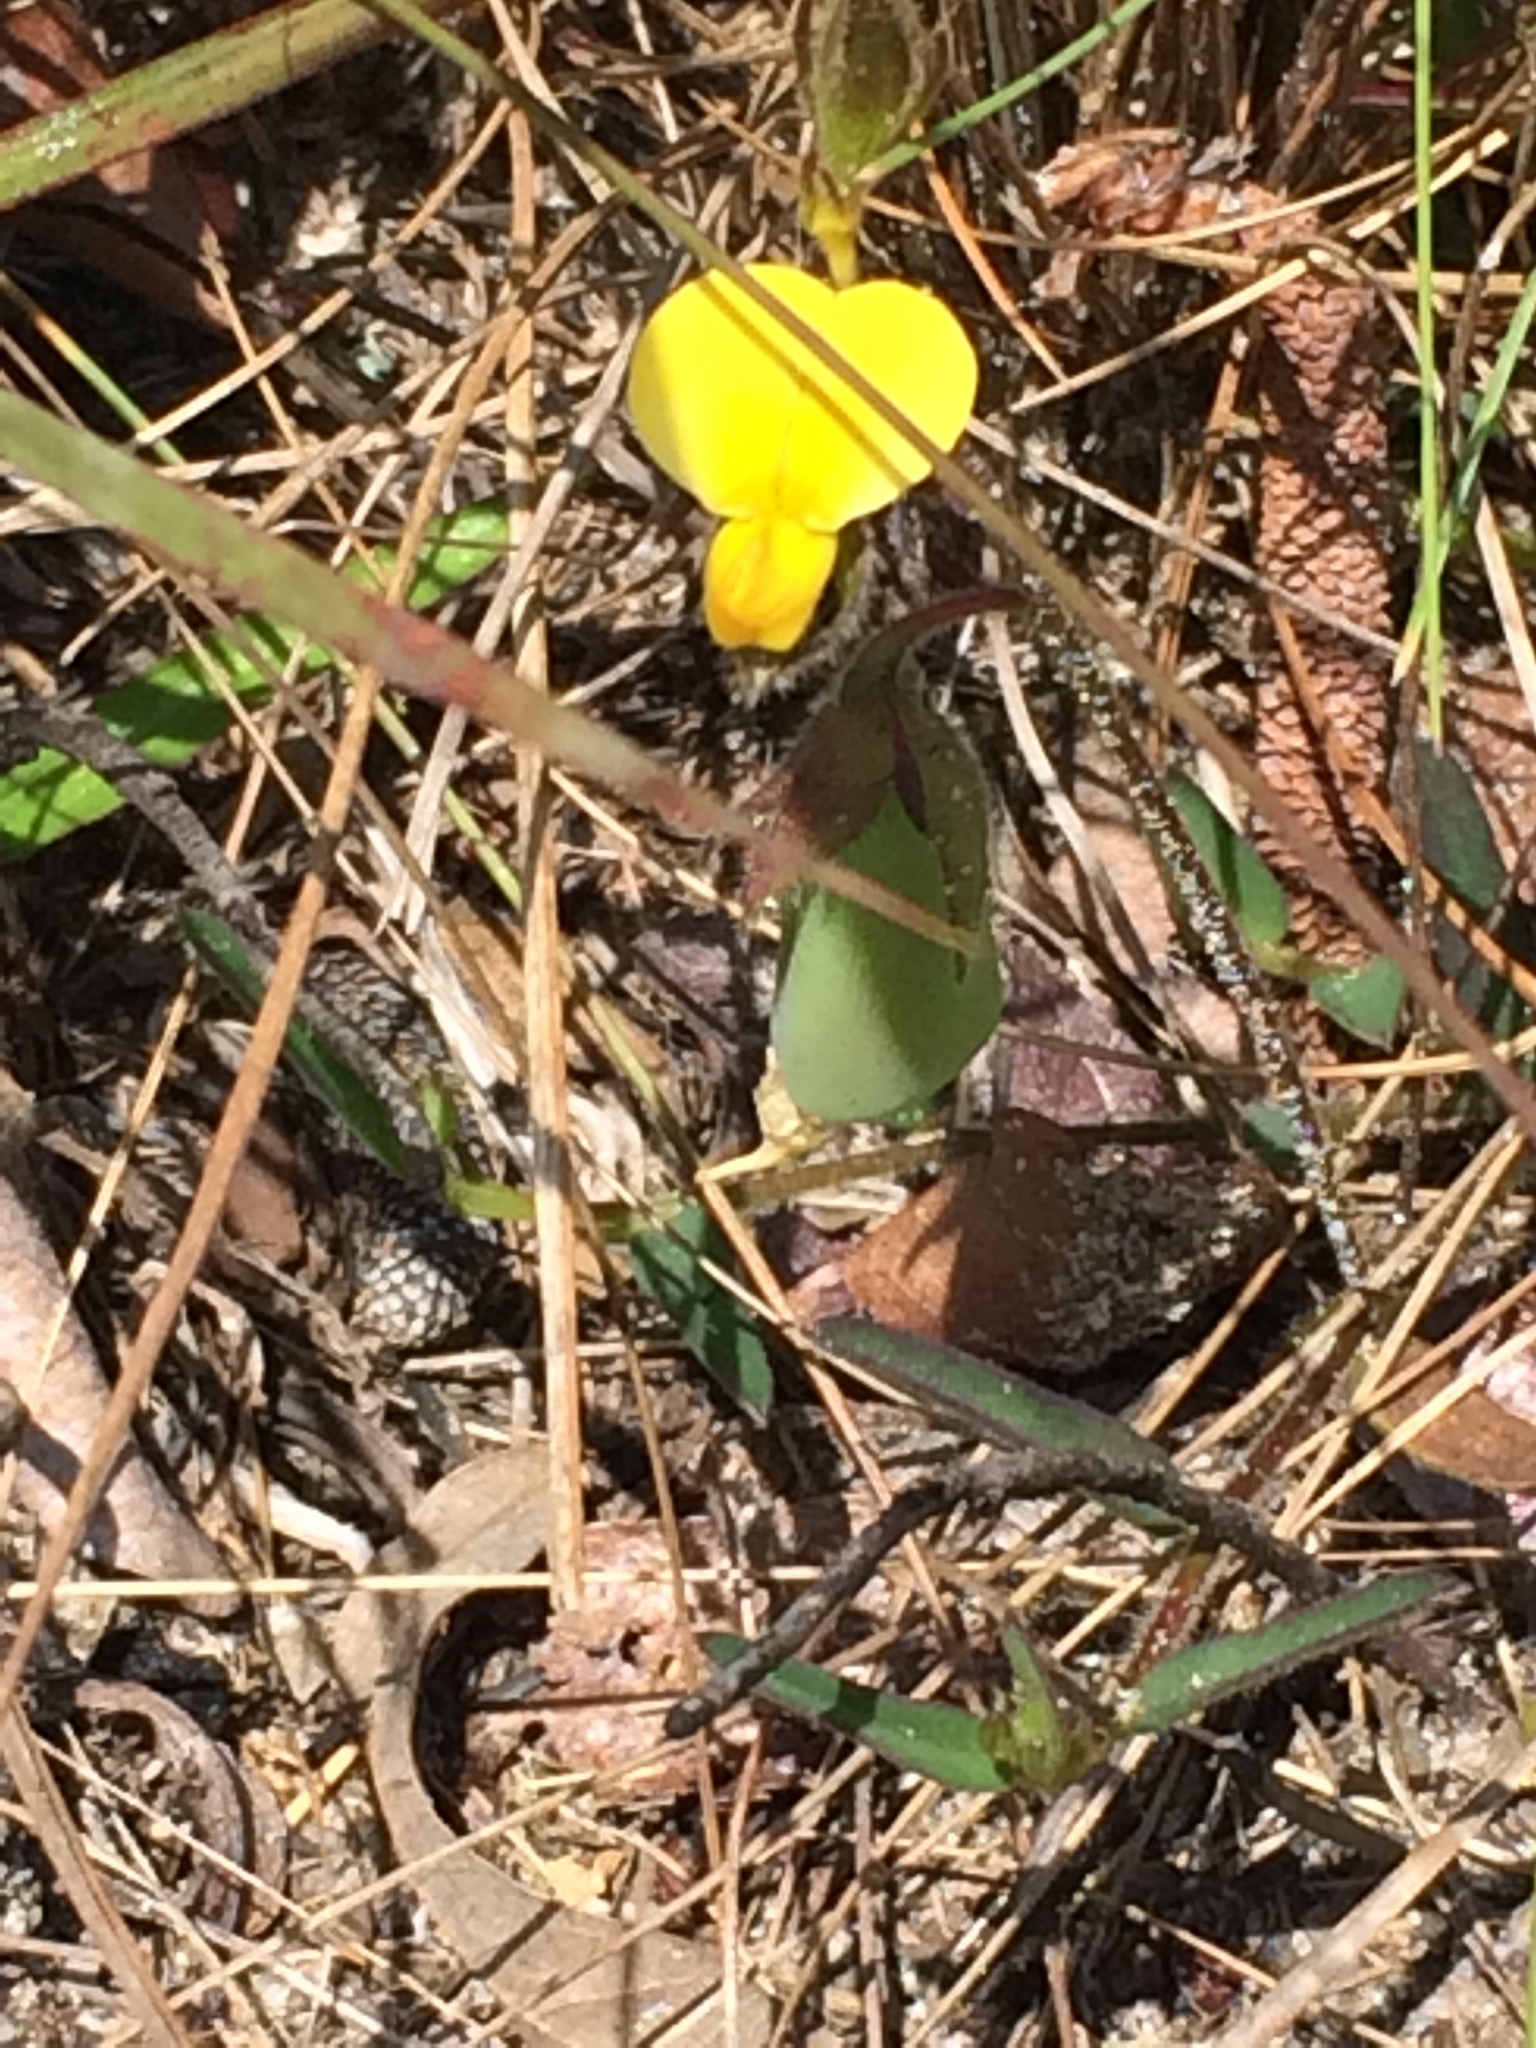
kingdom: Plantae
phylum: Tracheophyta
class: Magnoliopsida
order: Fabales
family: Fabaceae
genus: Crotalaria
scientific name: Crotalaria rotundifolia
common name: Prostrate rattlebox
